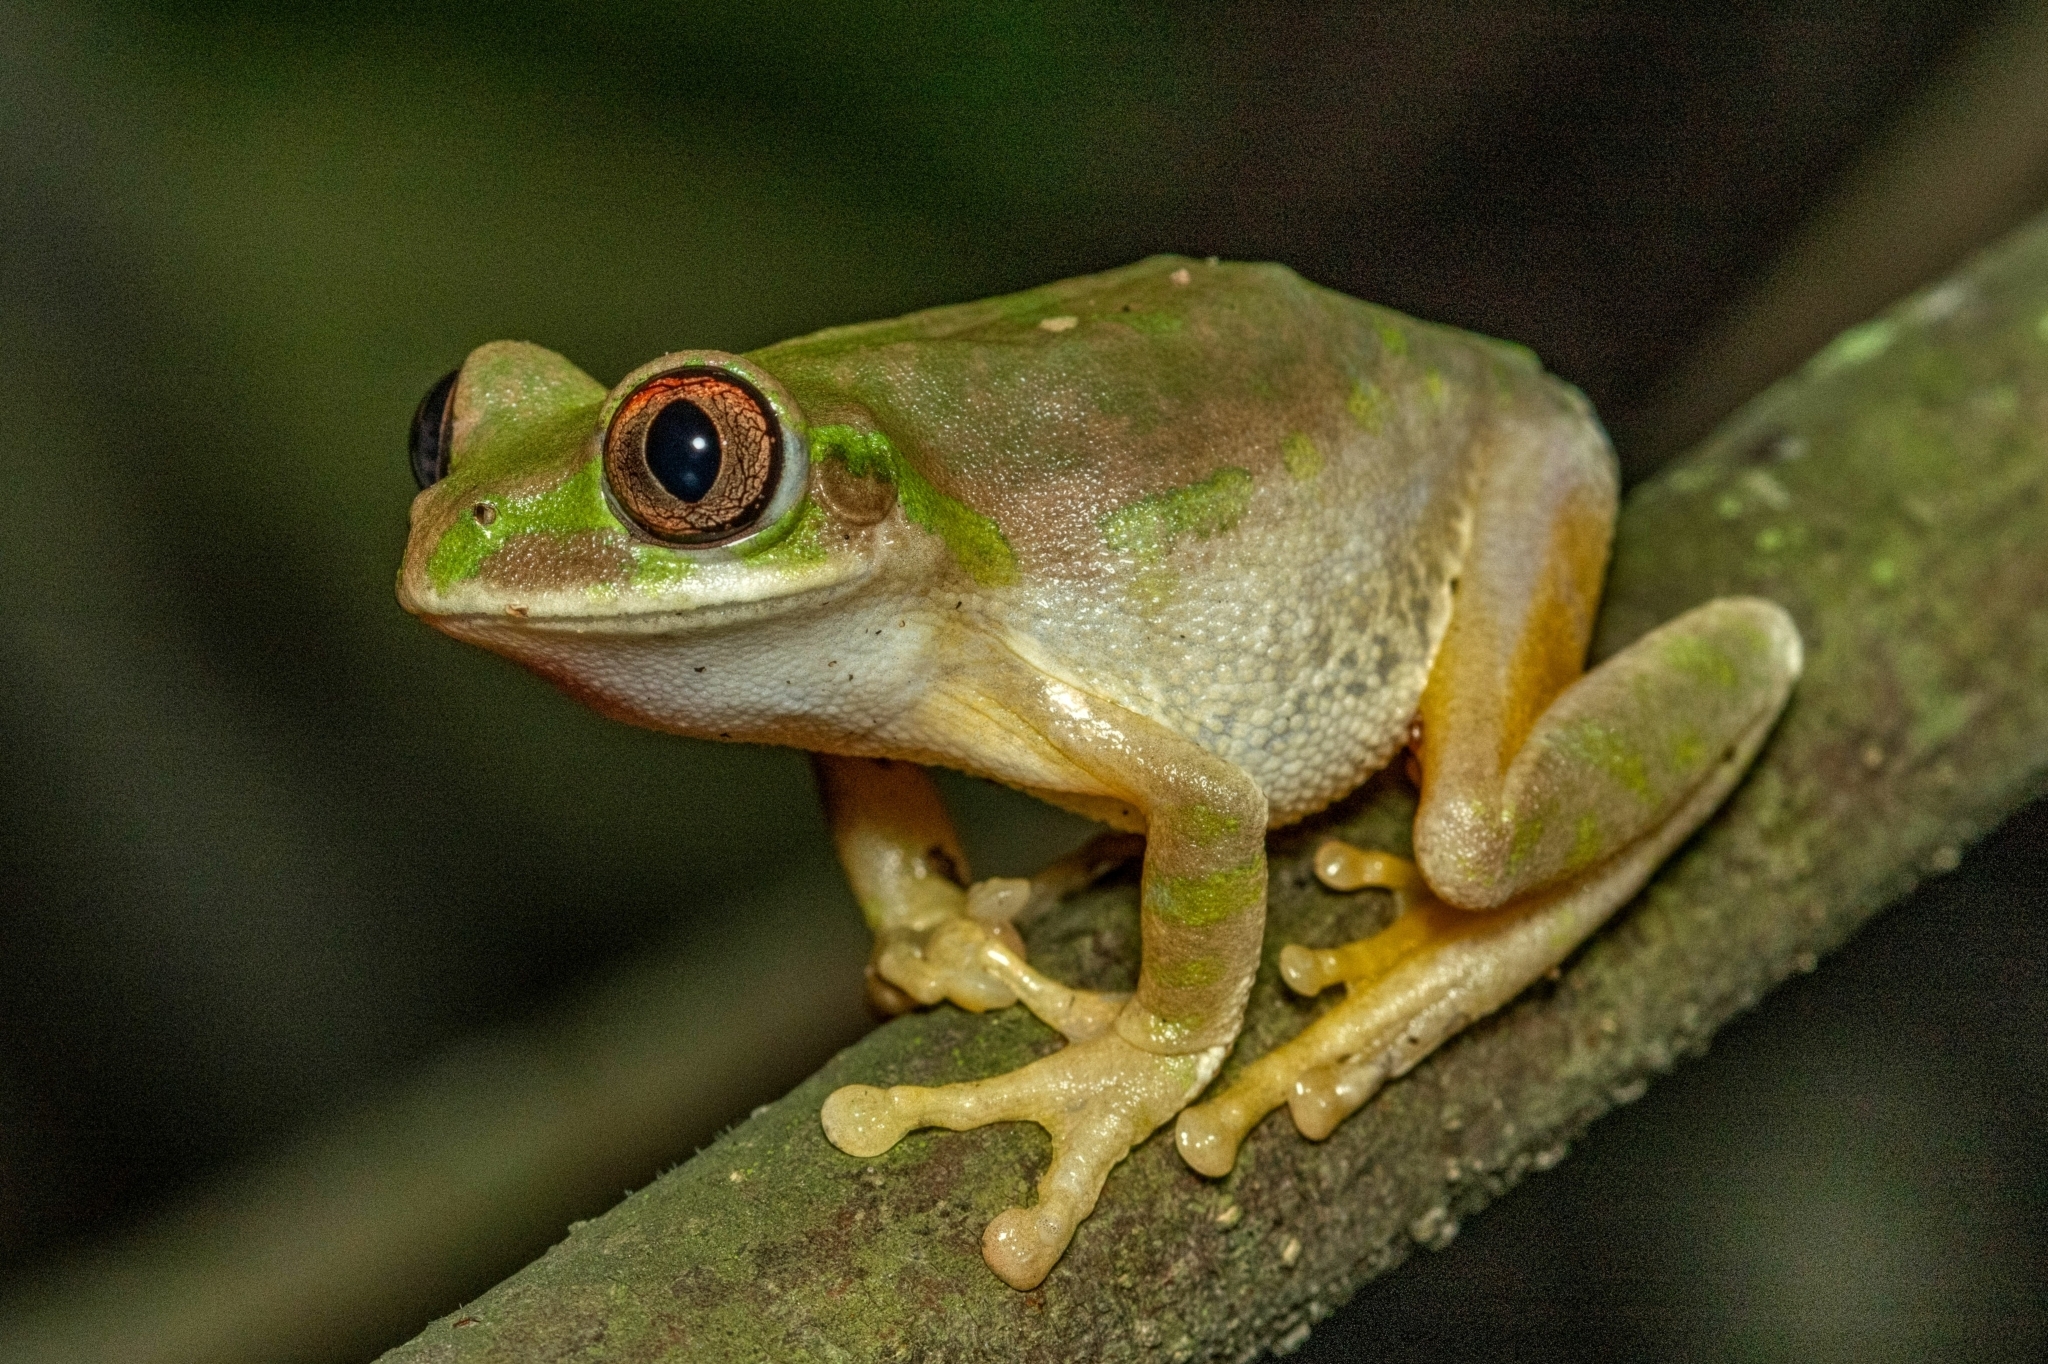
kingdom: Animalia
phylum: Chordata
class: Amphibia
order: Anura
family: Arthroleptidae
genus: Leptopelis
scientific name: Leptopelis natalensis
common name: Natal tree frog
